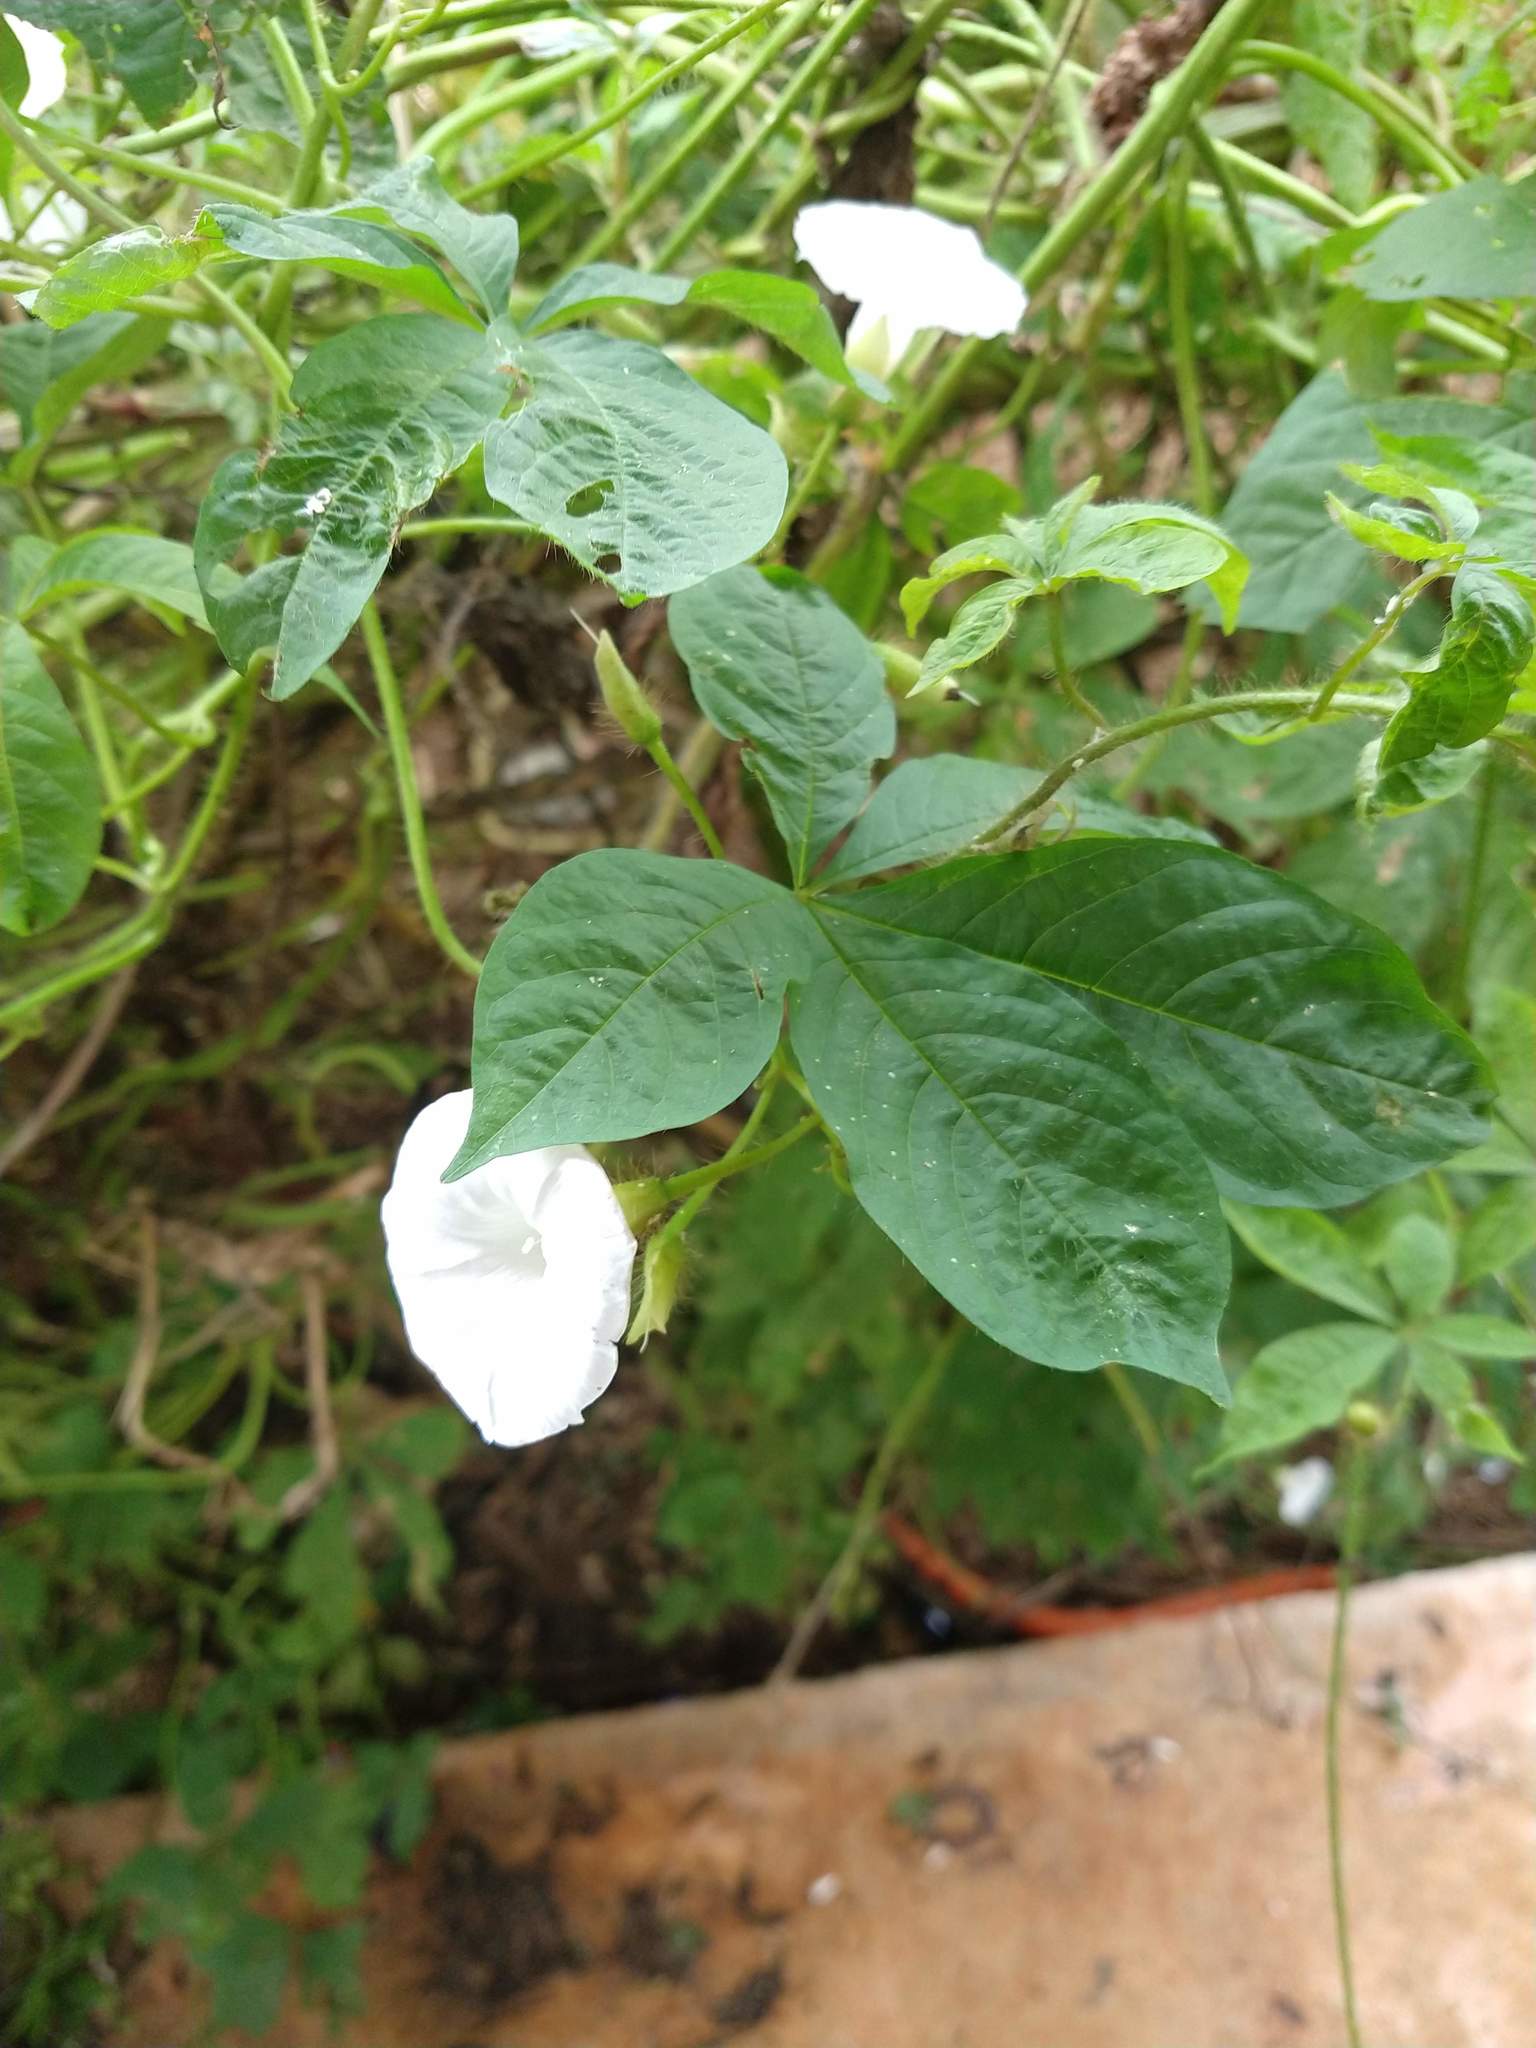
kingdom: Plantae
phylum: Tracheophyta
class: Magnoliopsida
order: Solanales
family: Convolvulaceae
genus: Distimake
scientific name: Distimake aegyptius
